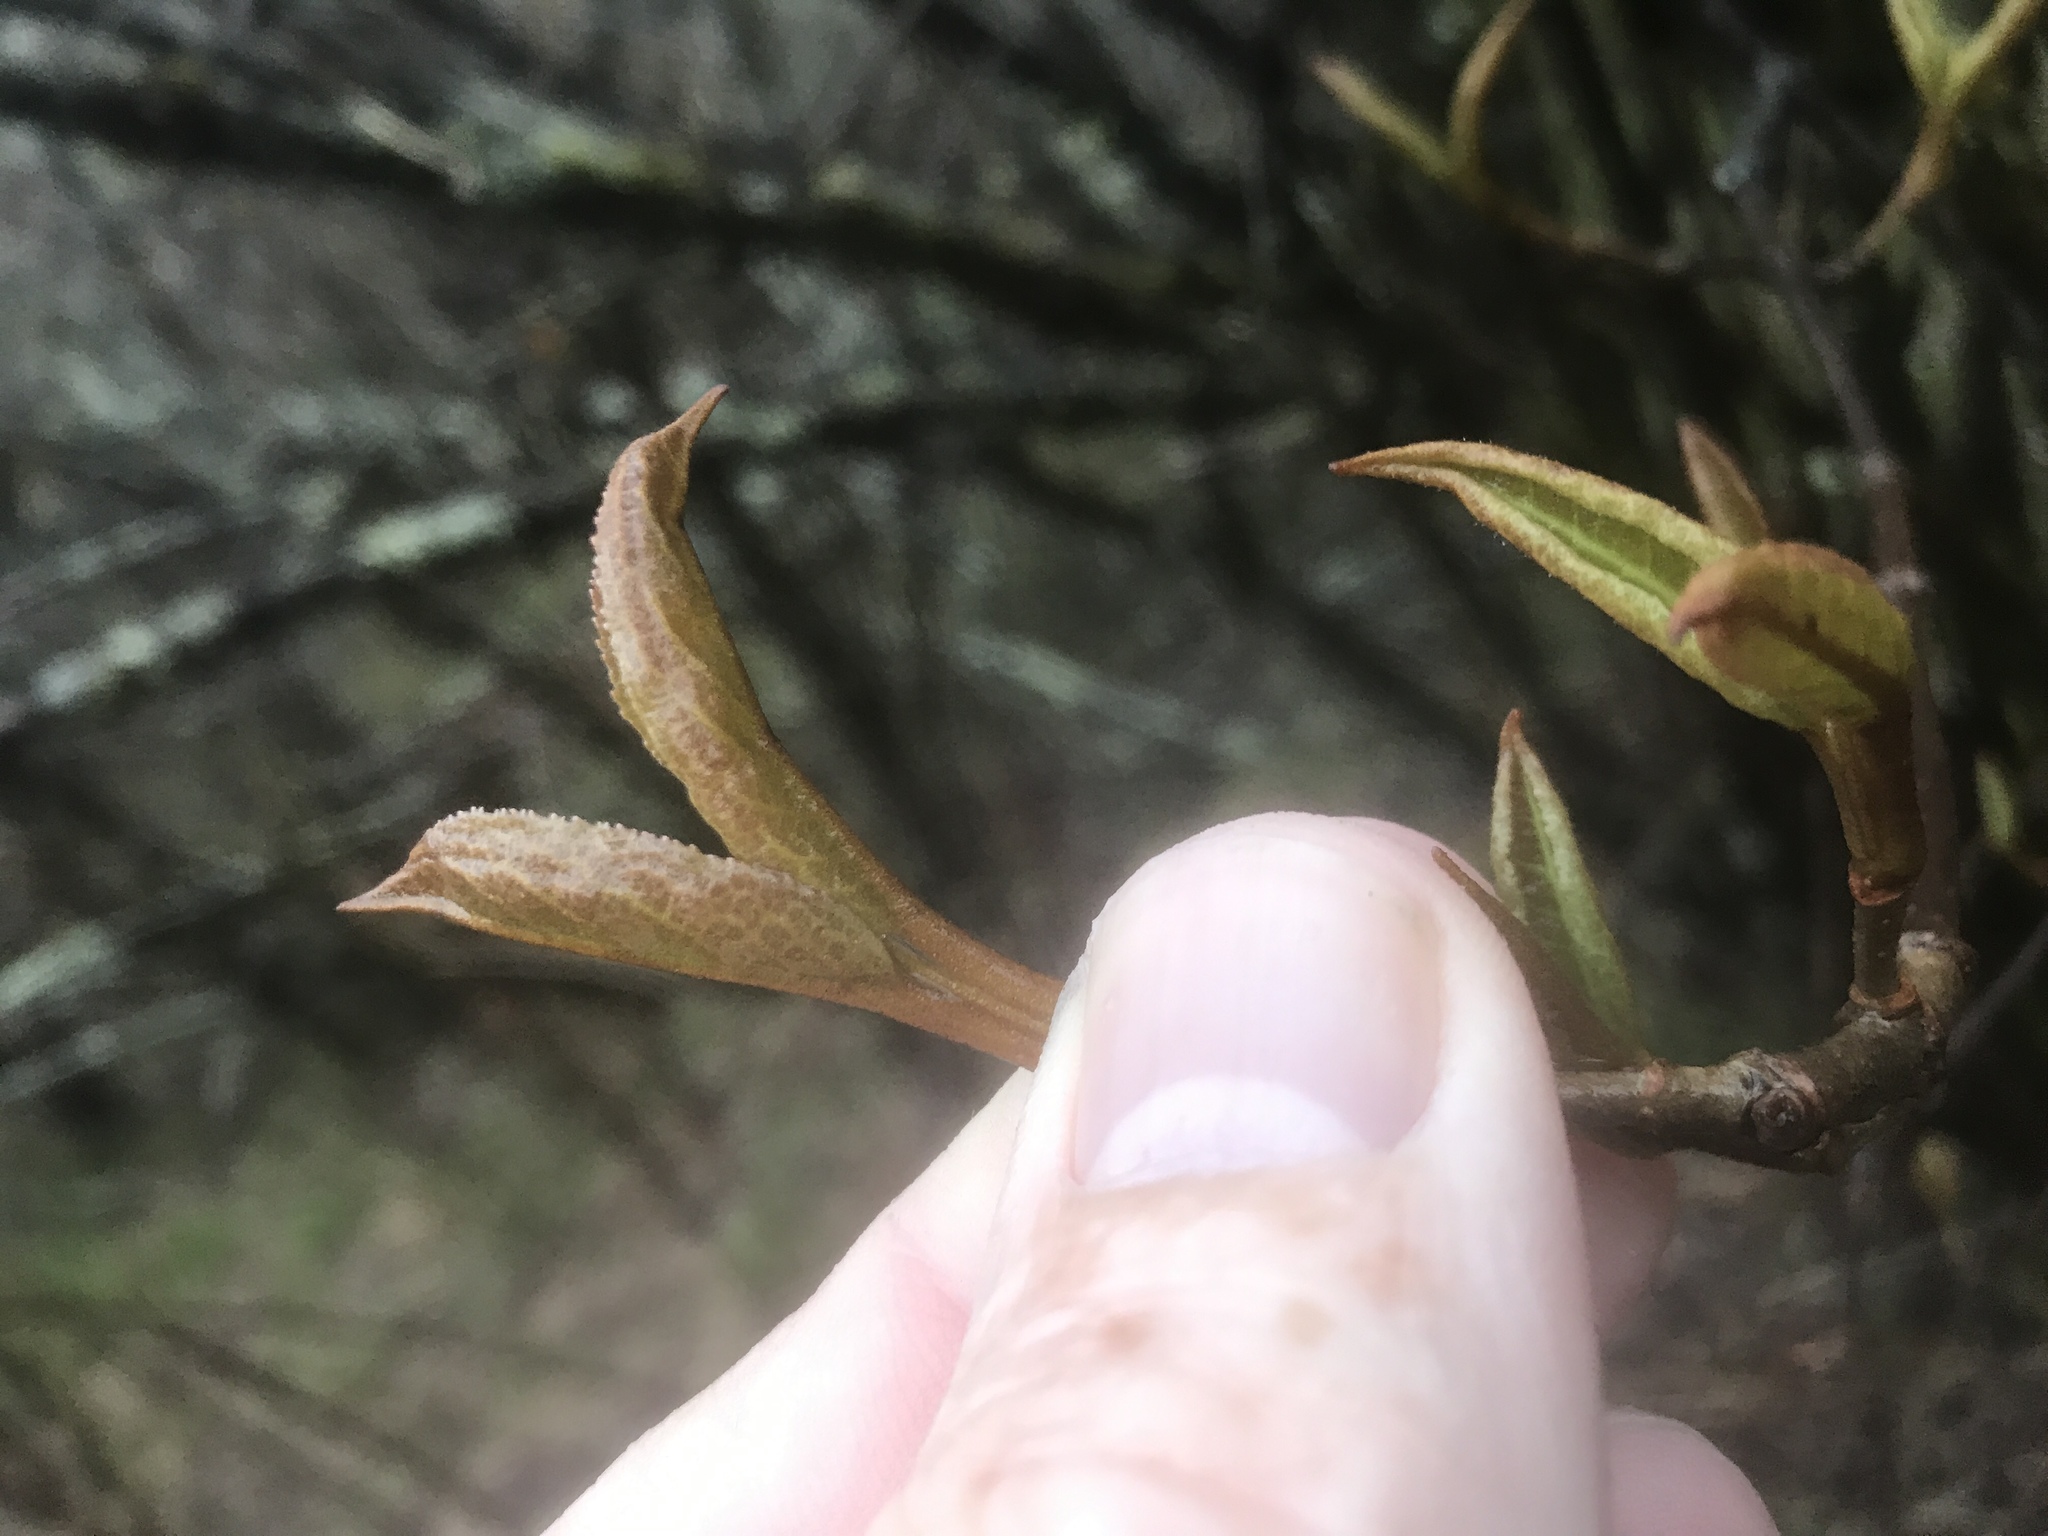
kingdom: Plantae
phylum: Tracheophyta
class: Magnoliopsida
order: Dipsacales
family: Viburnaceae
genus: Viburnum
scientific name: Viburnum cassinoides
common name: Swamp haw
